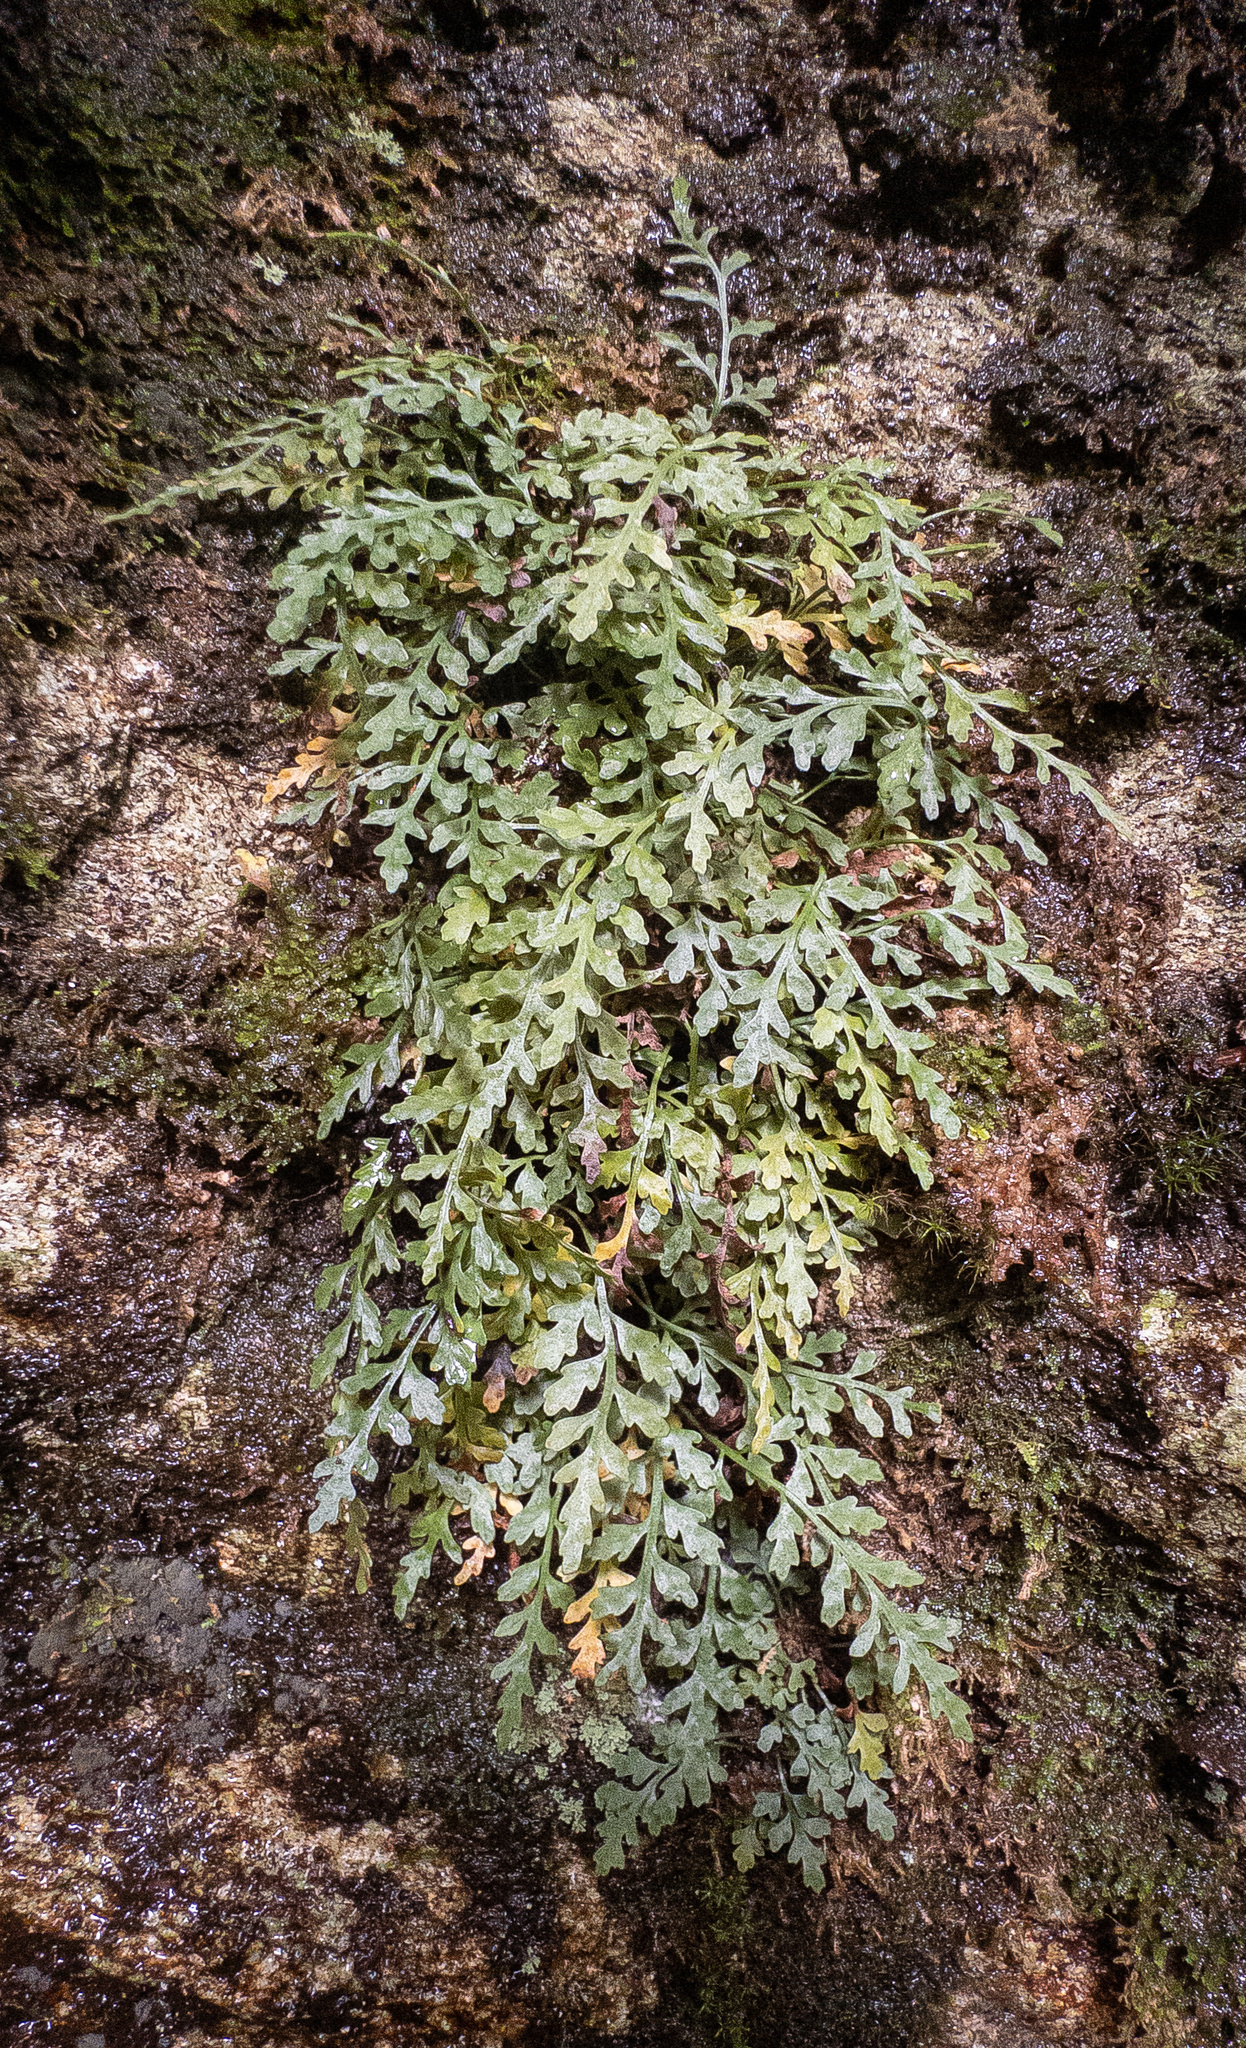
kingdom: Plantae
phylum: Tracheophyta
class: Polypodiopsida
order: Polypodiales
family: Aspleniaceae
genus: Asplenium
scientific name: Asplenium montanum
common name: Mountain spleenwort
